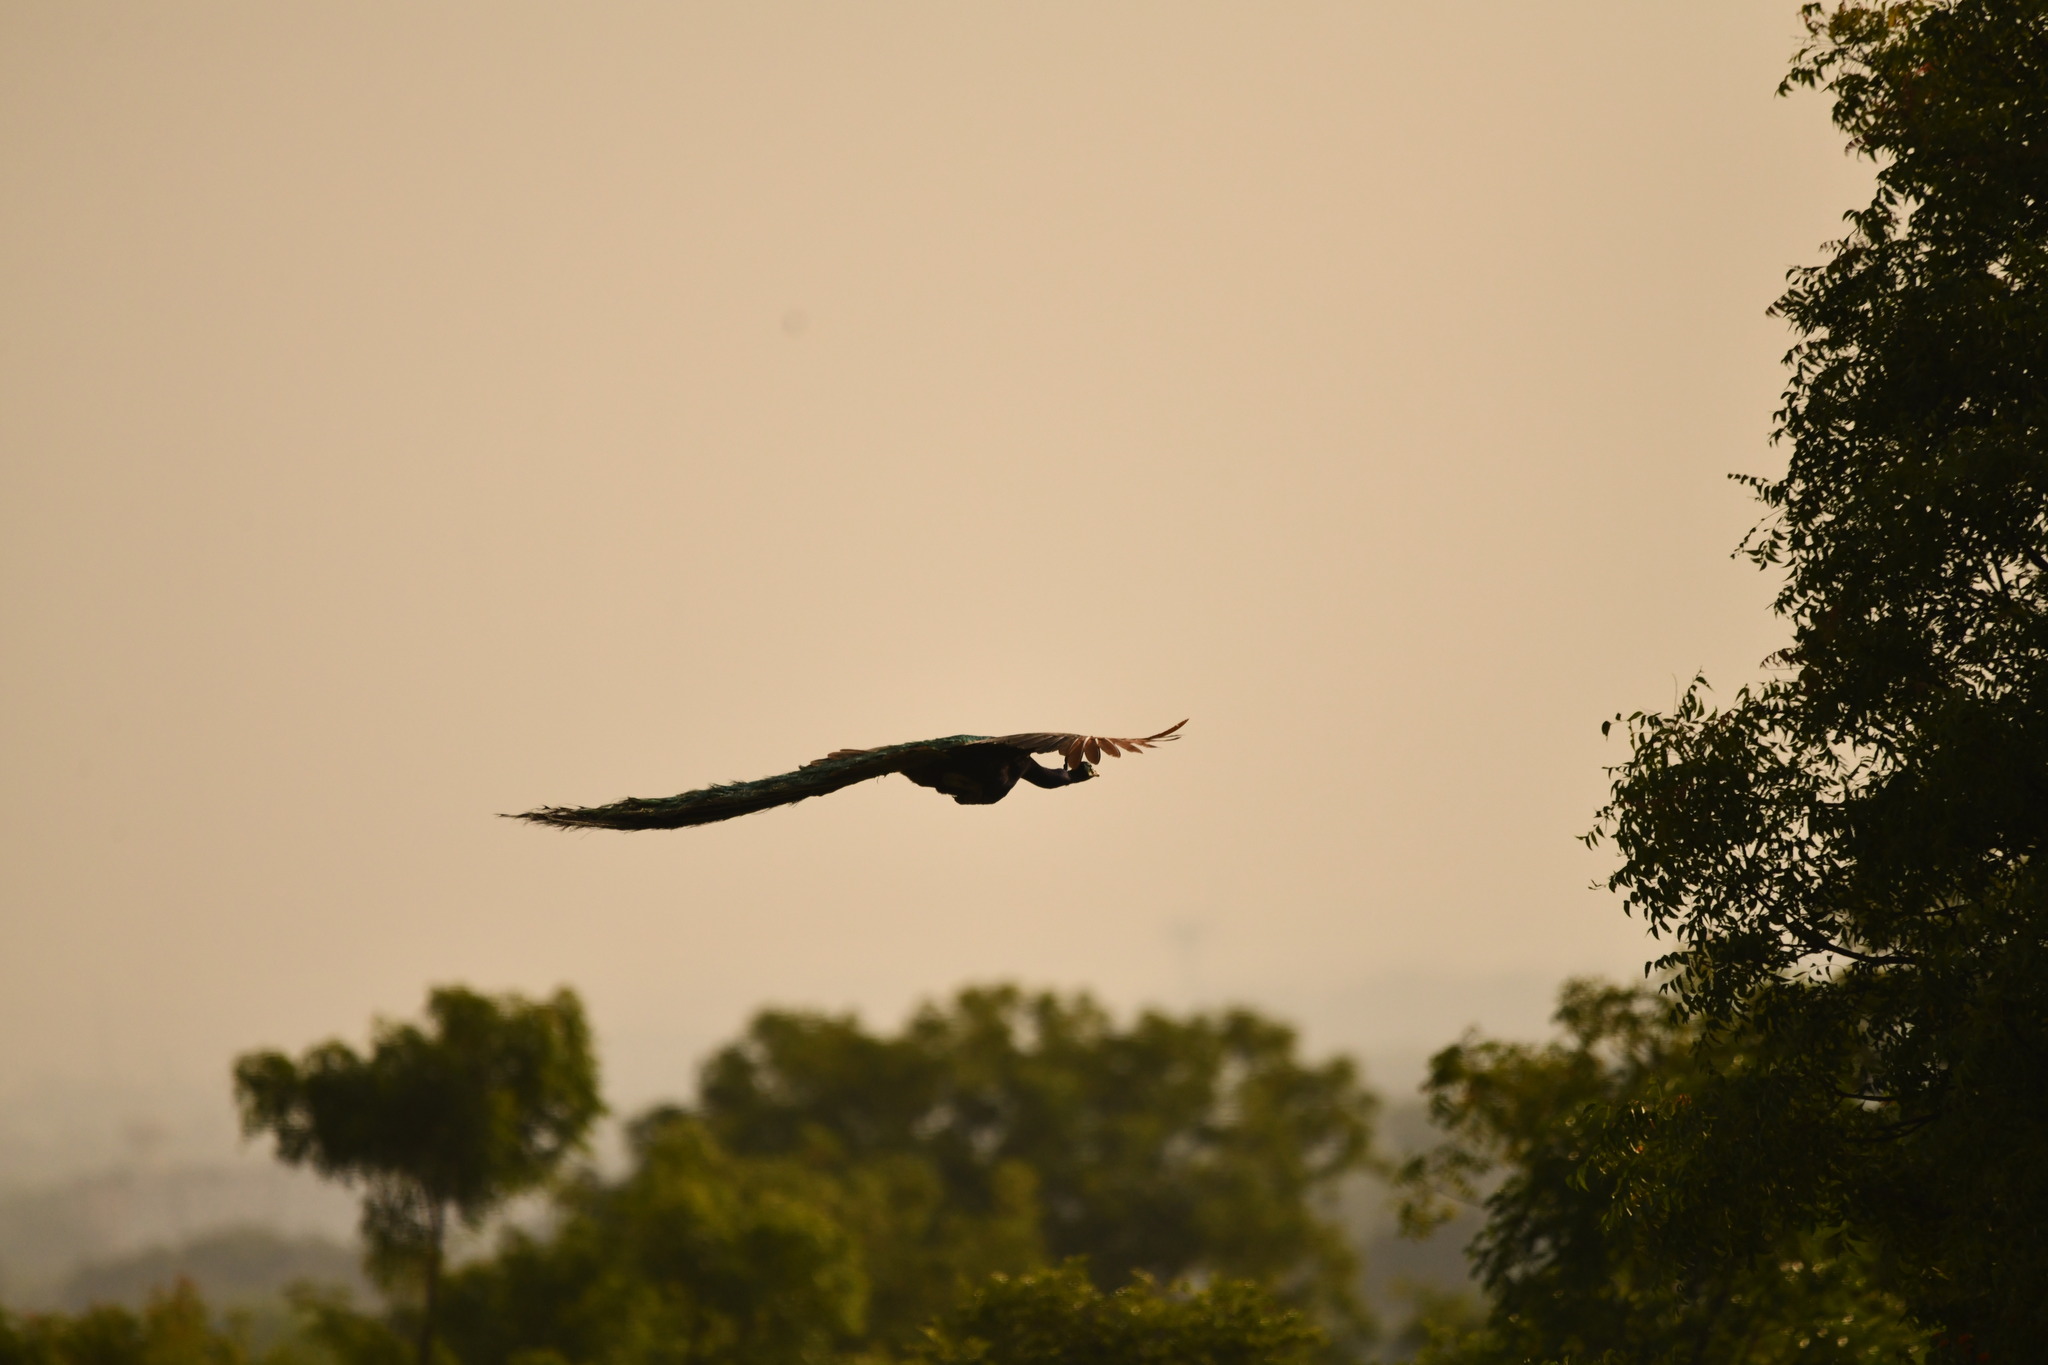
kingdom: Animalia
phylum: Chordata
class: Aves
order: Galliformes
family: Phasianidae
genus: Pavo
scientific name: Pavo cristatus
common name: Indian peafowl
